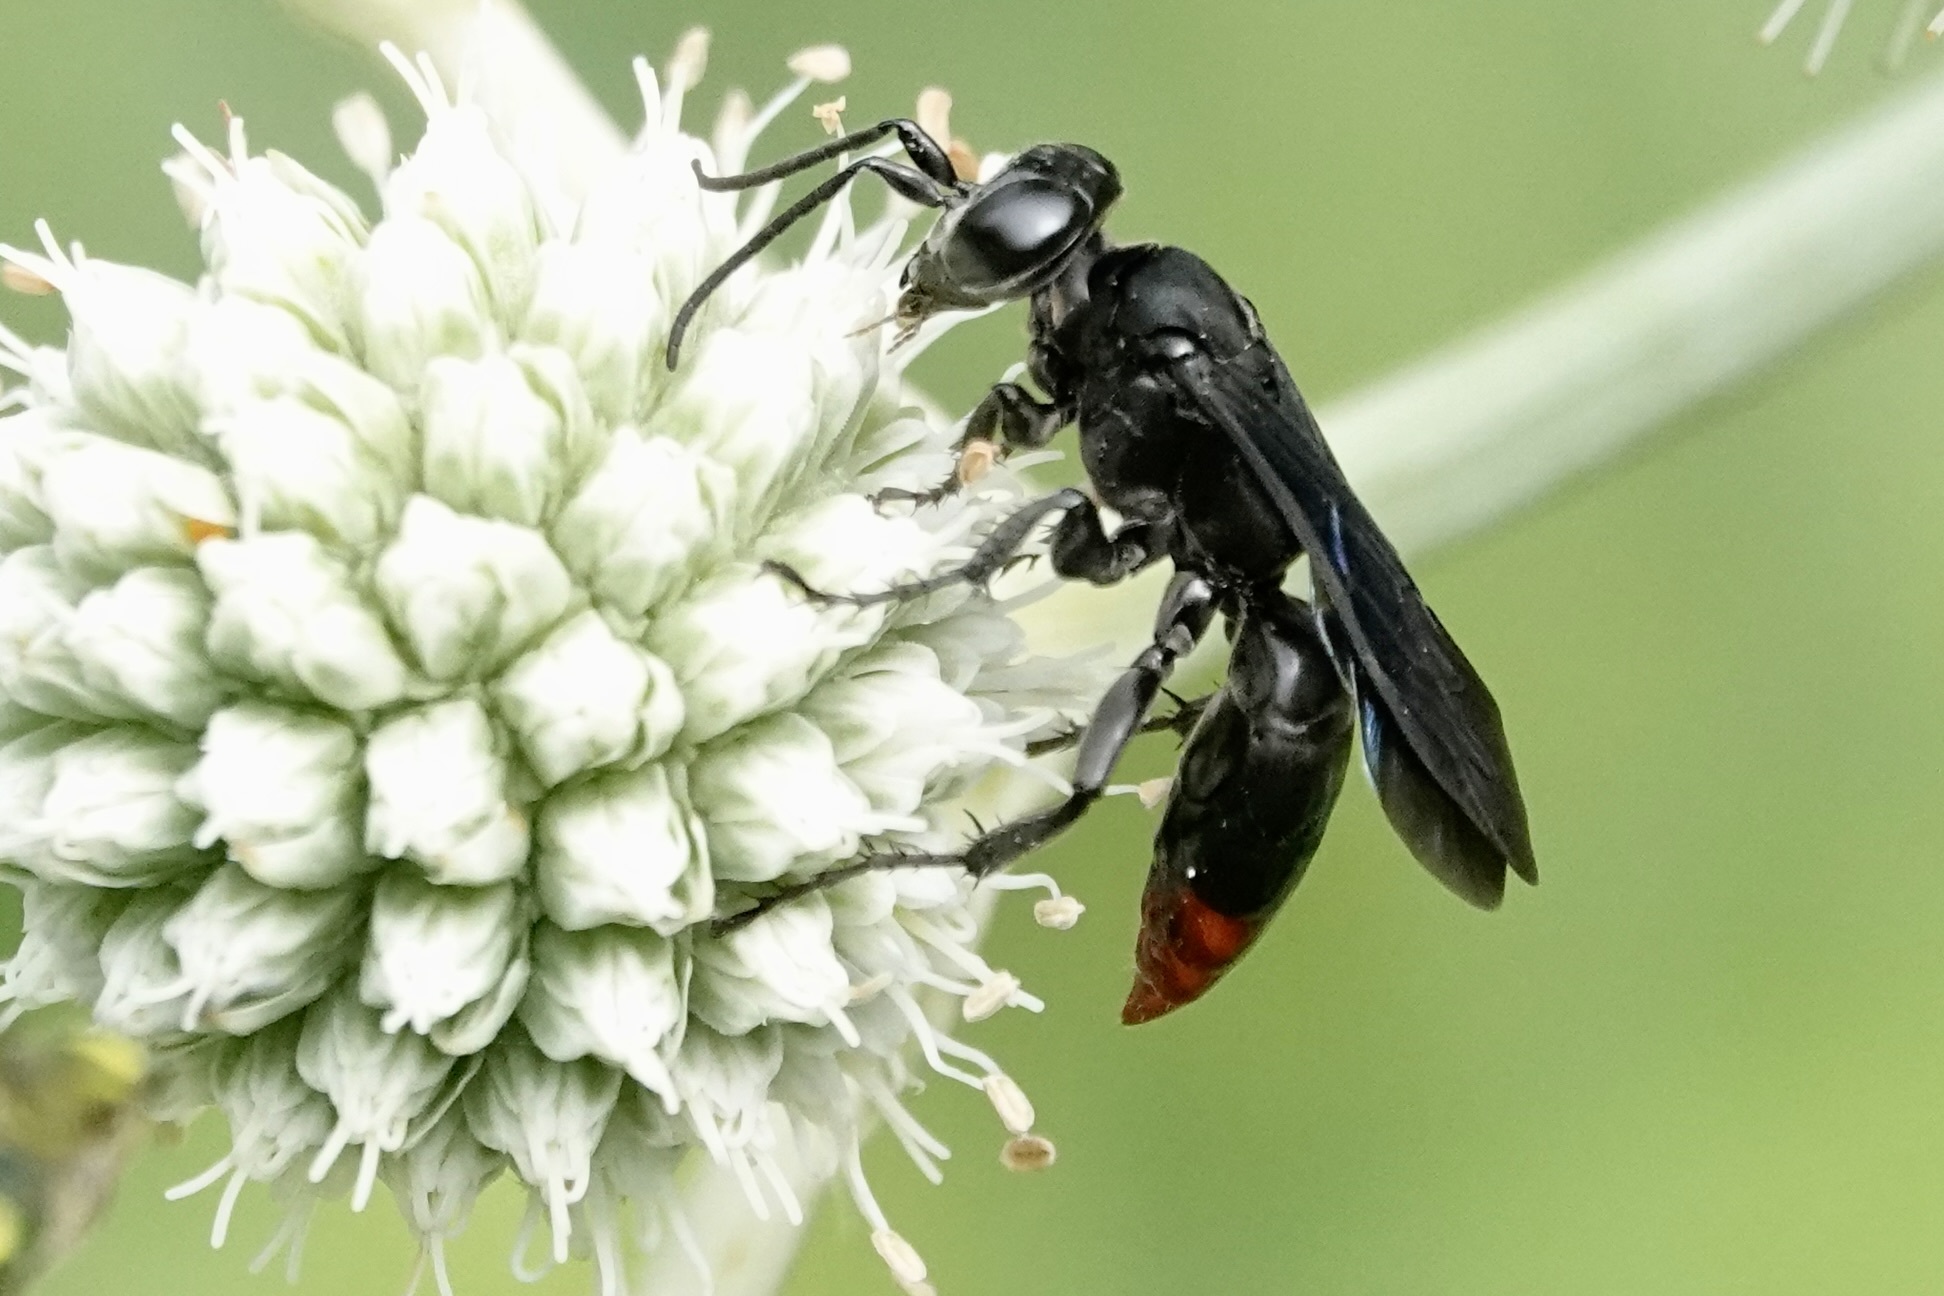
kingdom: Animalia
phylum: Arthropoda
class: Insecta
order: Hymenoptera
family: Crabronidae
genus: Larra
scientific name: Larra analis
